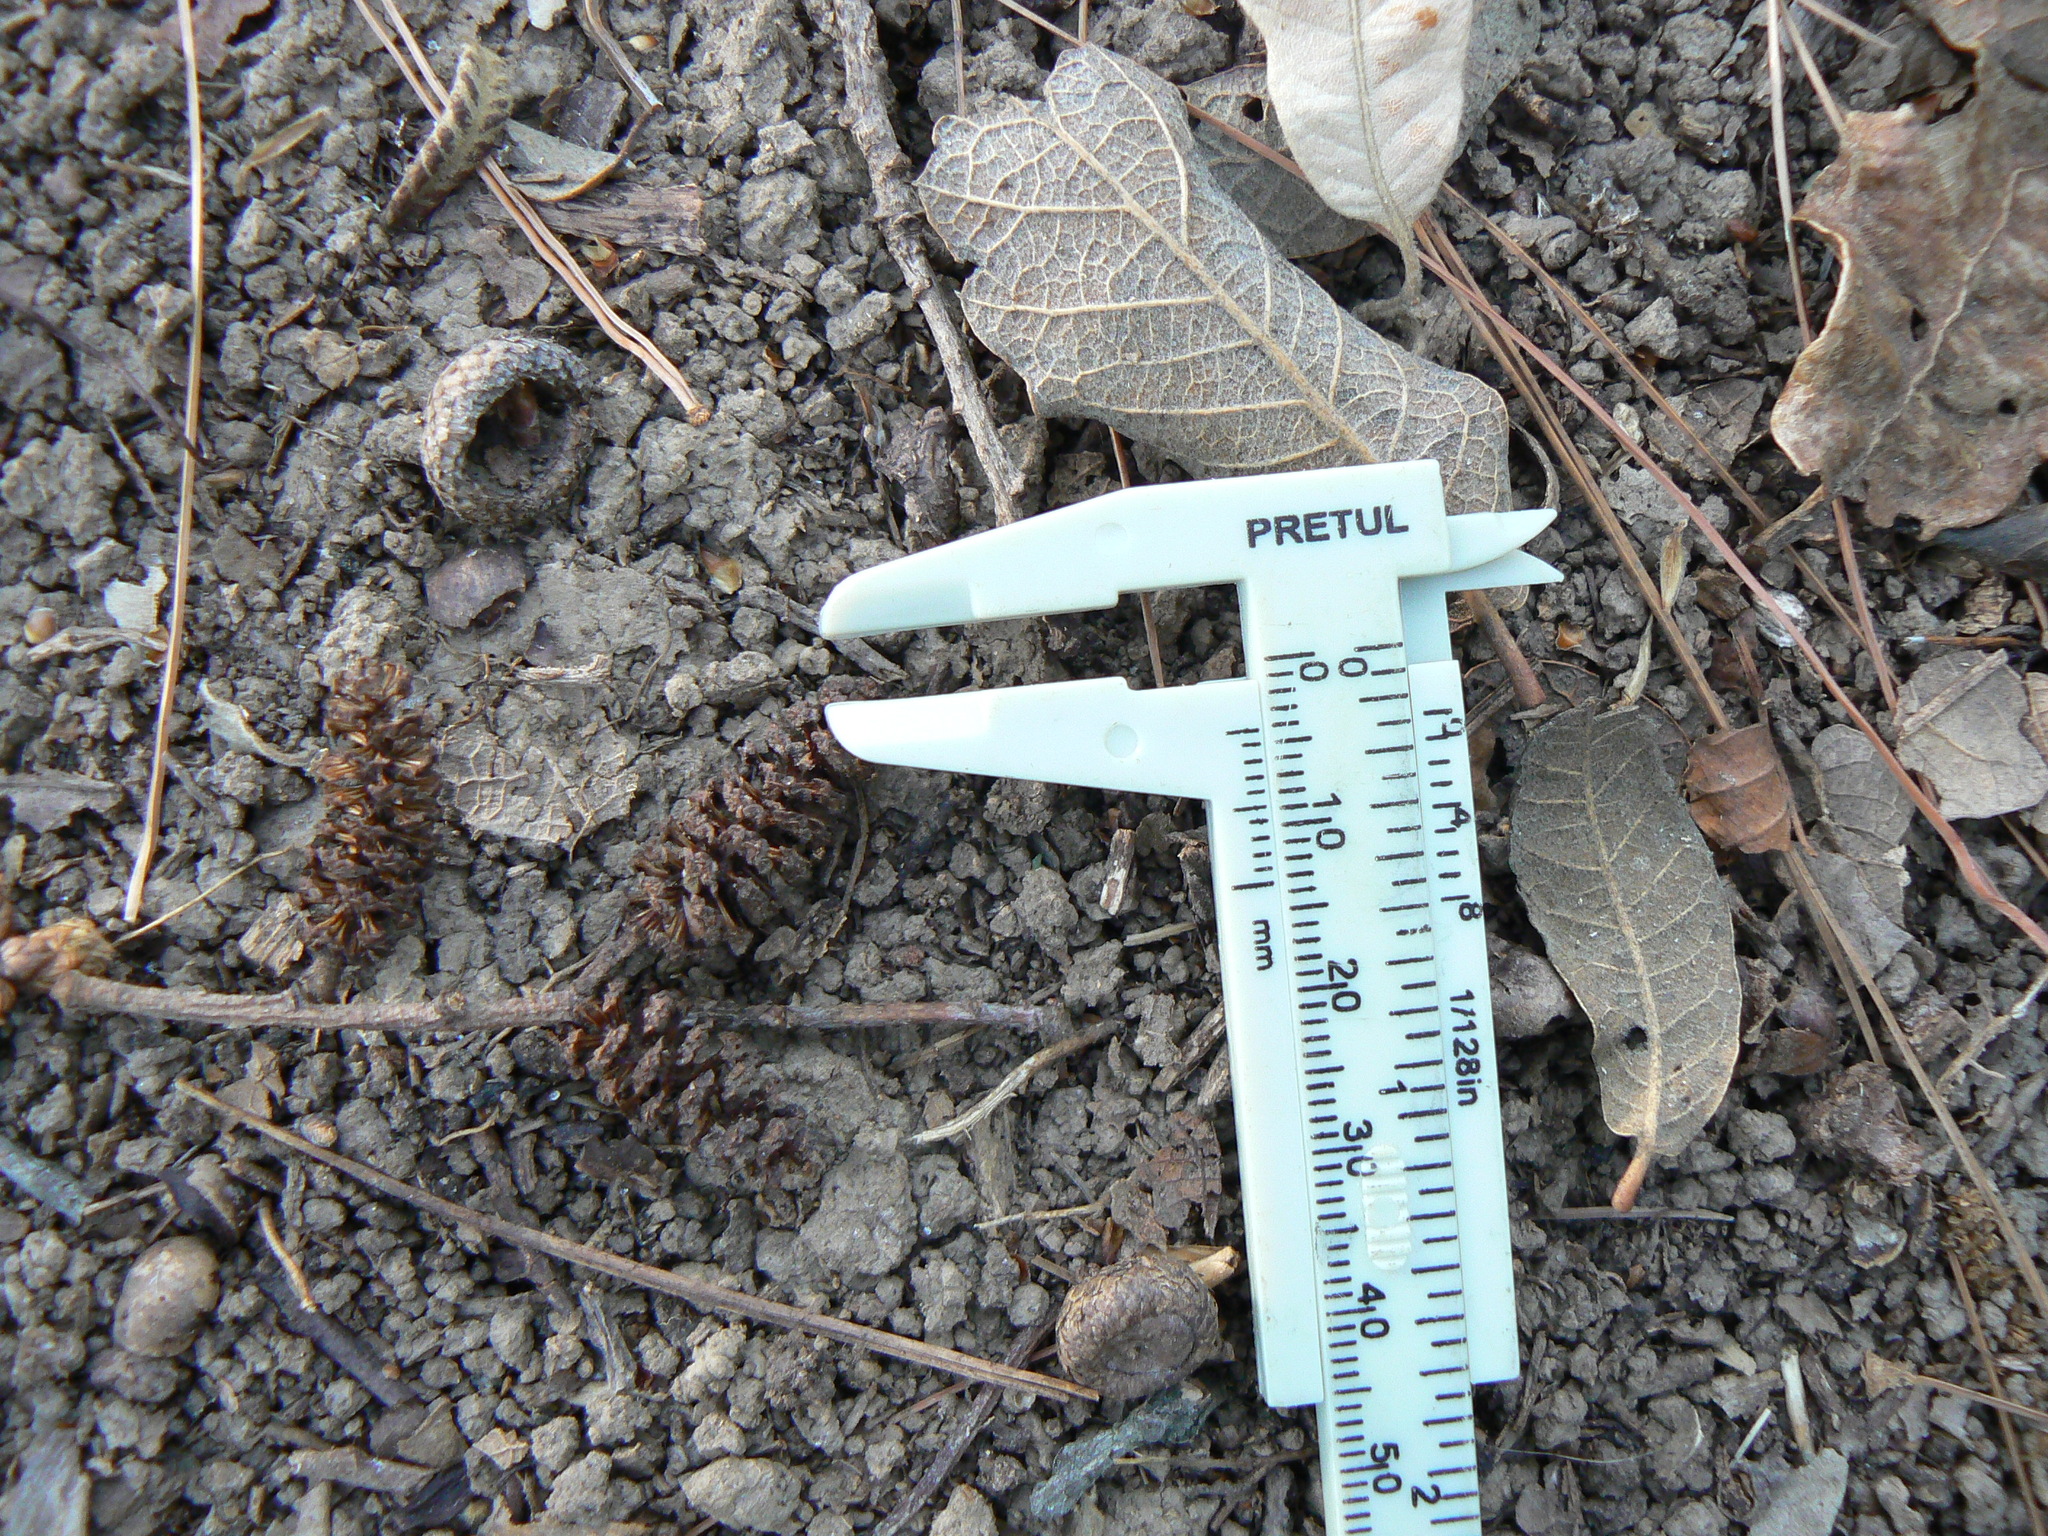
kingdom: Plantae
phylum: Tracheophyta
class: Magnoliopsida
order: Fagales
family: Betulaceae
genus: Alnus
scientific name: Alnus acuminata
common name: Alder
